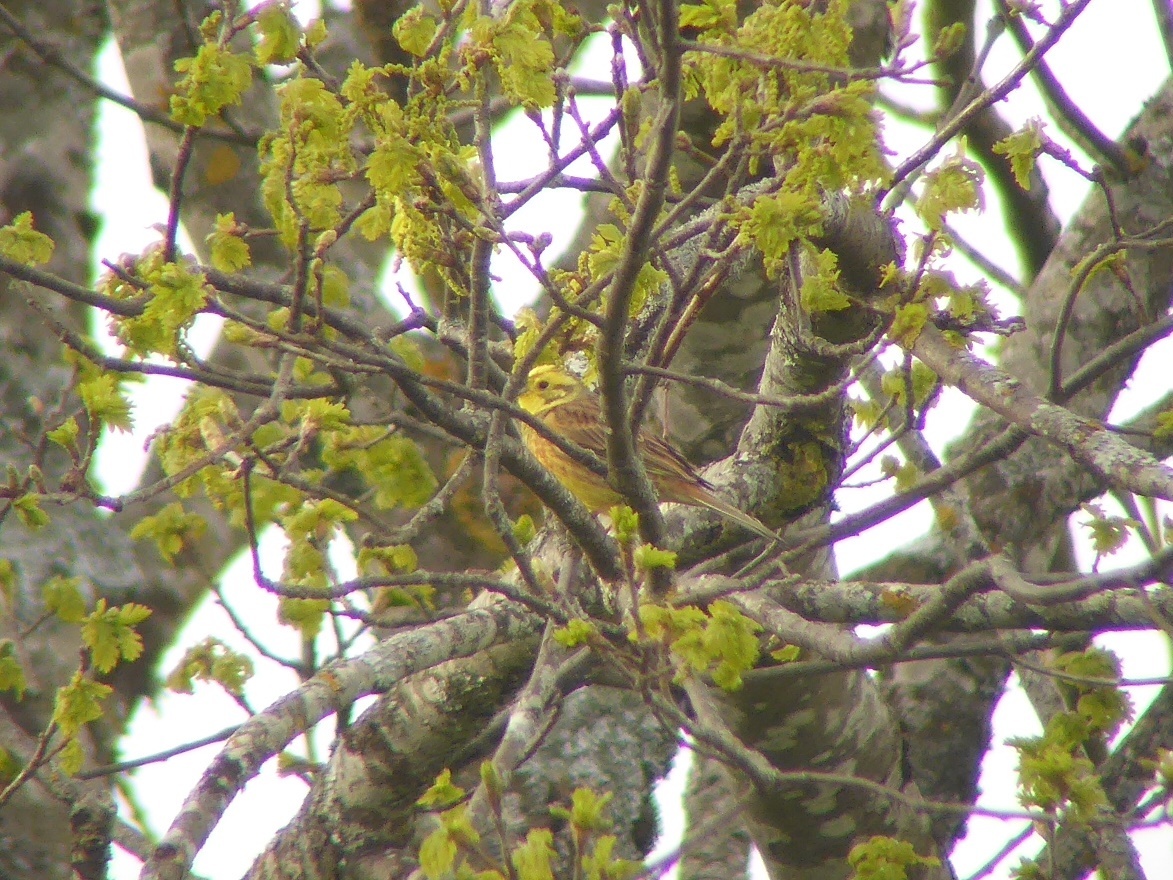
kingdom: Animalia
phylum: Chordata
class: Aves
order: Passeriformes
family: Emberizidae
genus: Emberiza
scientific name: Emberiza citrinella
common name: Yellowhammer
